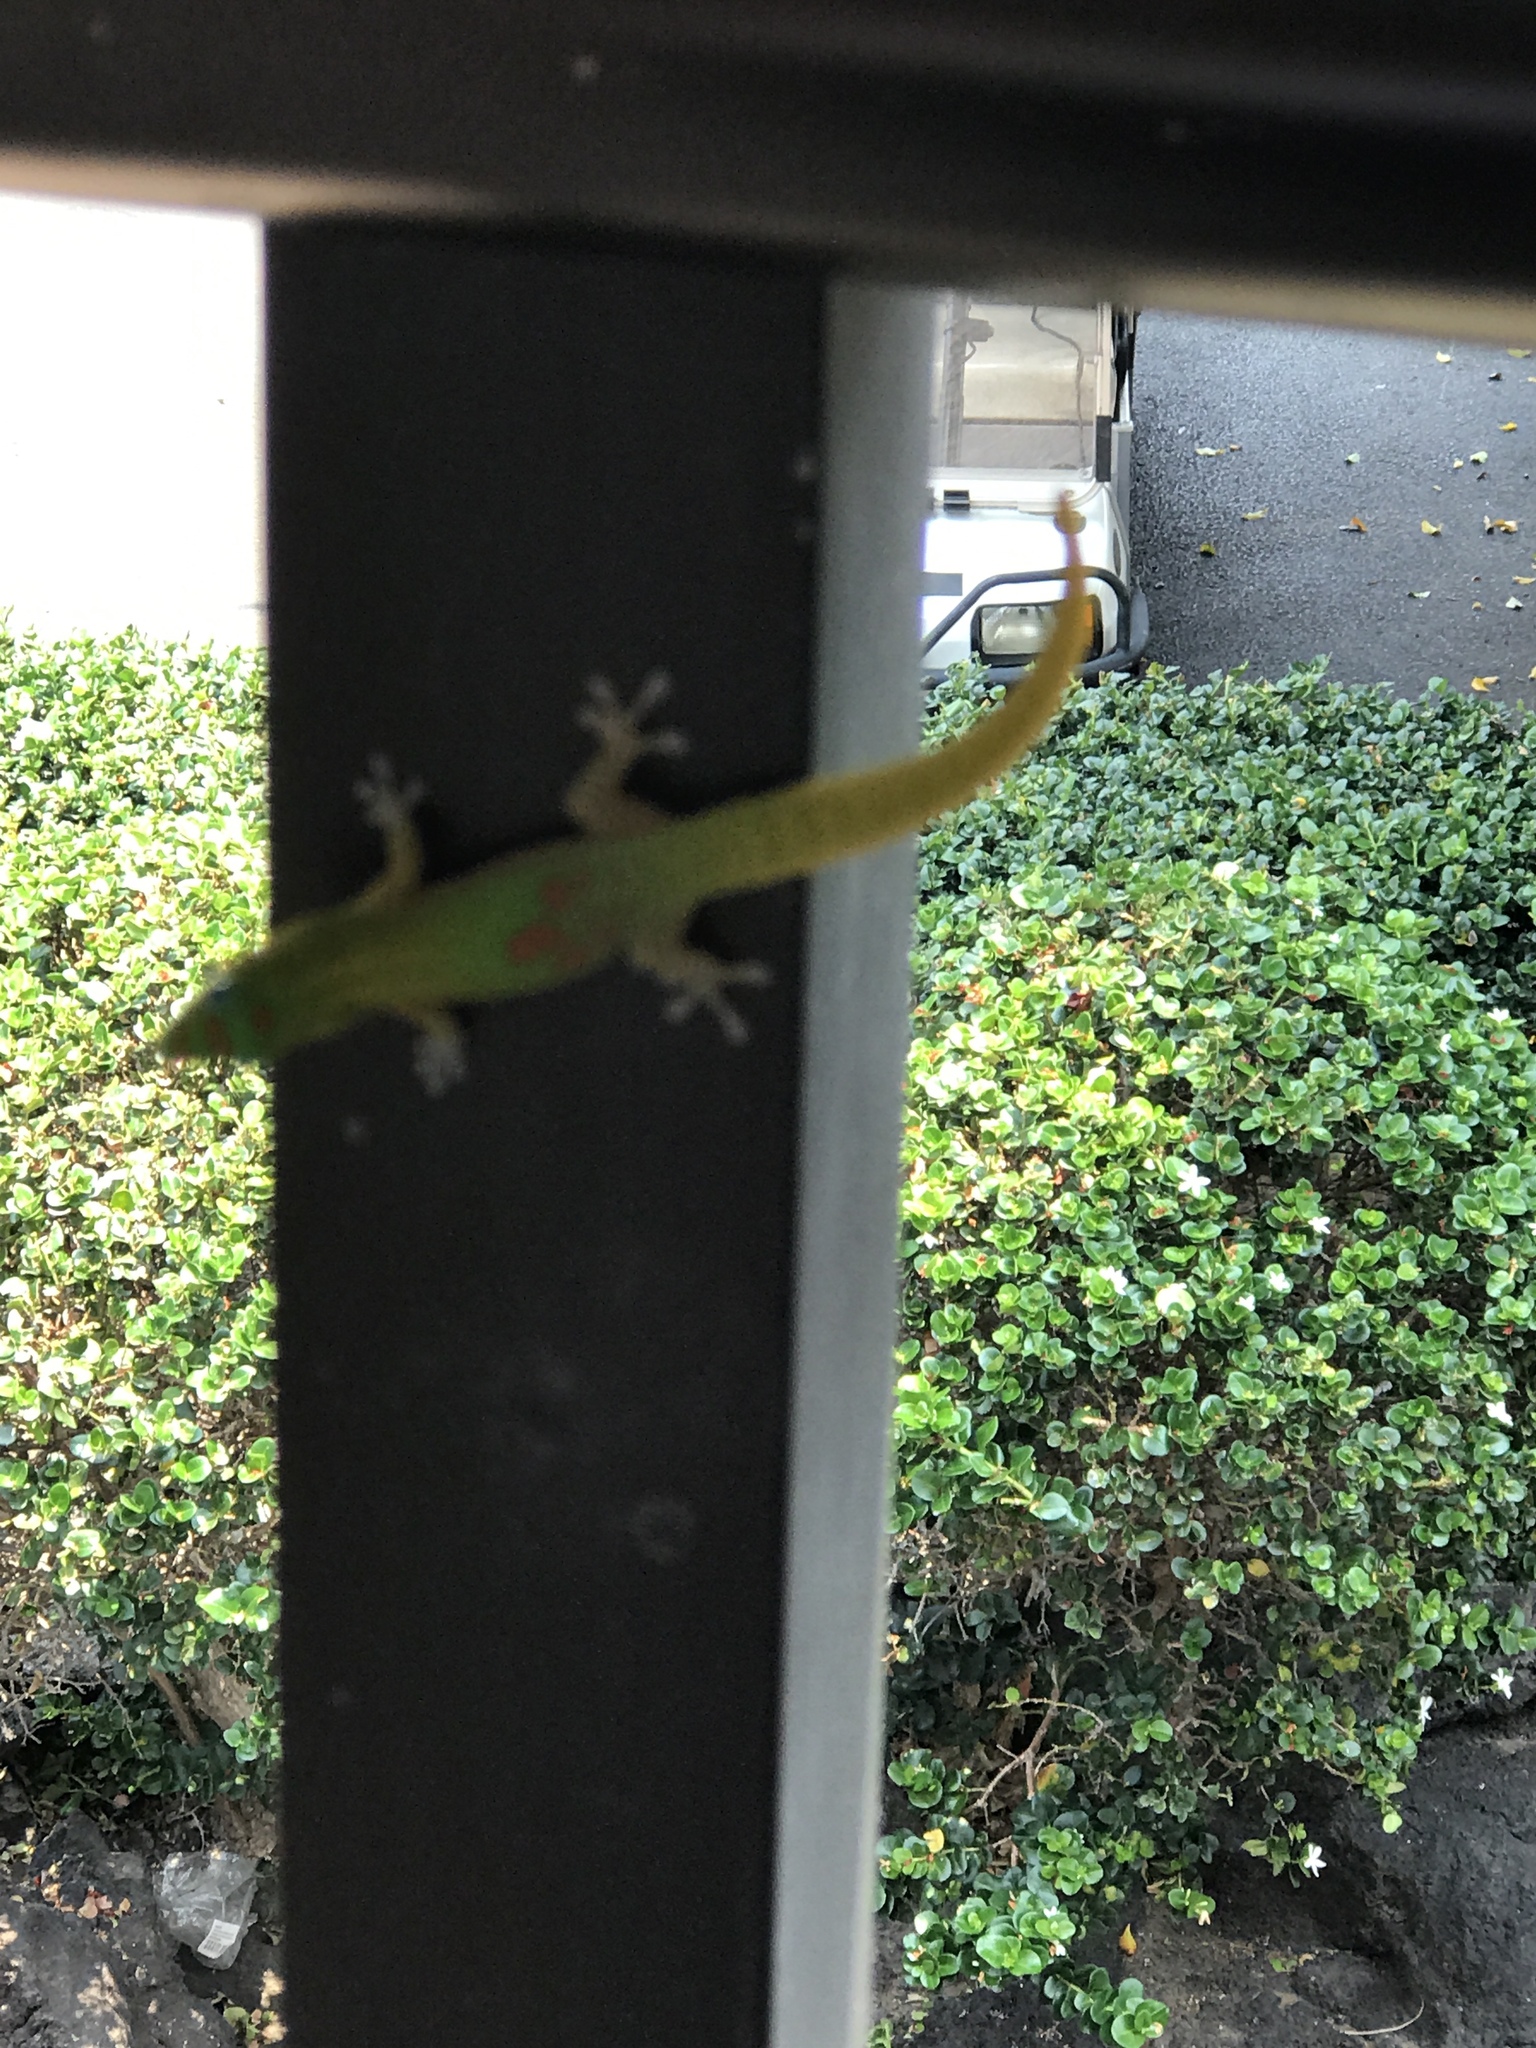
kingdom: Animalia
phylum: Chordata
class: Squamata
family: Gekkonidae
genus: Phelsuma
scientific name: Phelsuma laticauda
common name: Gold dust day gecko
